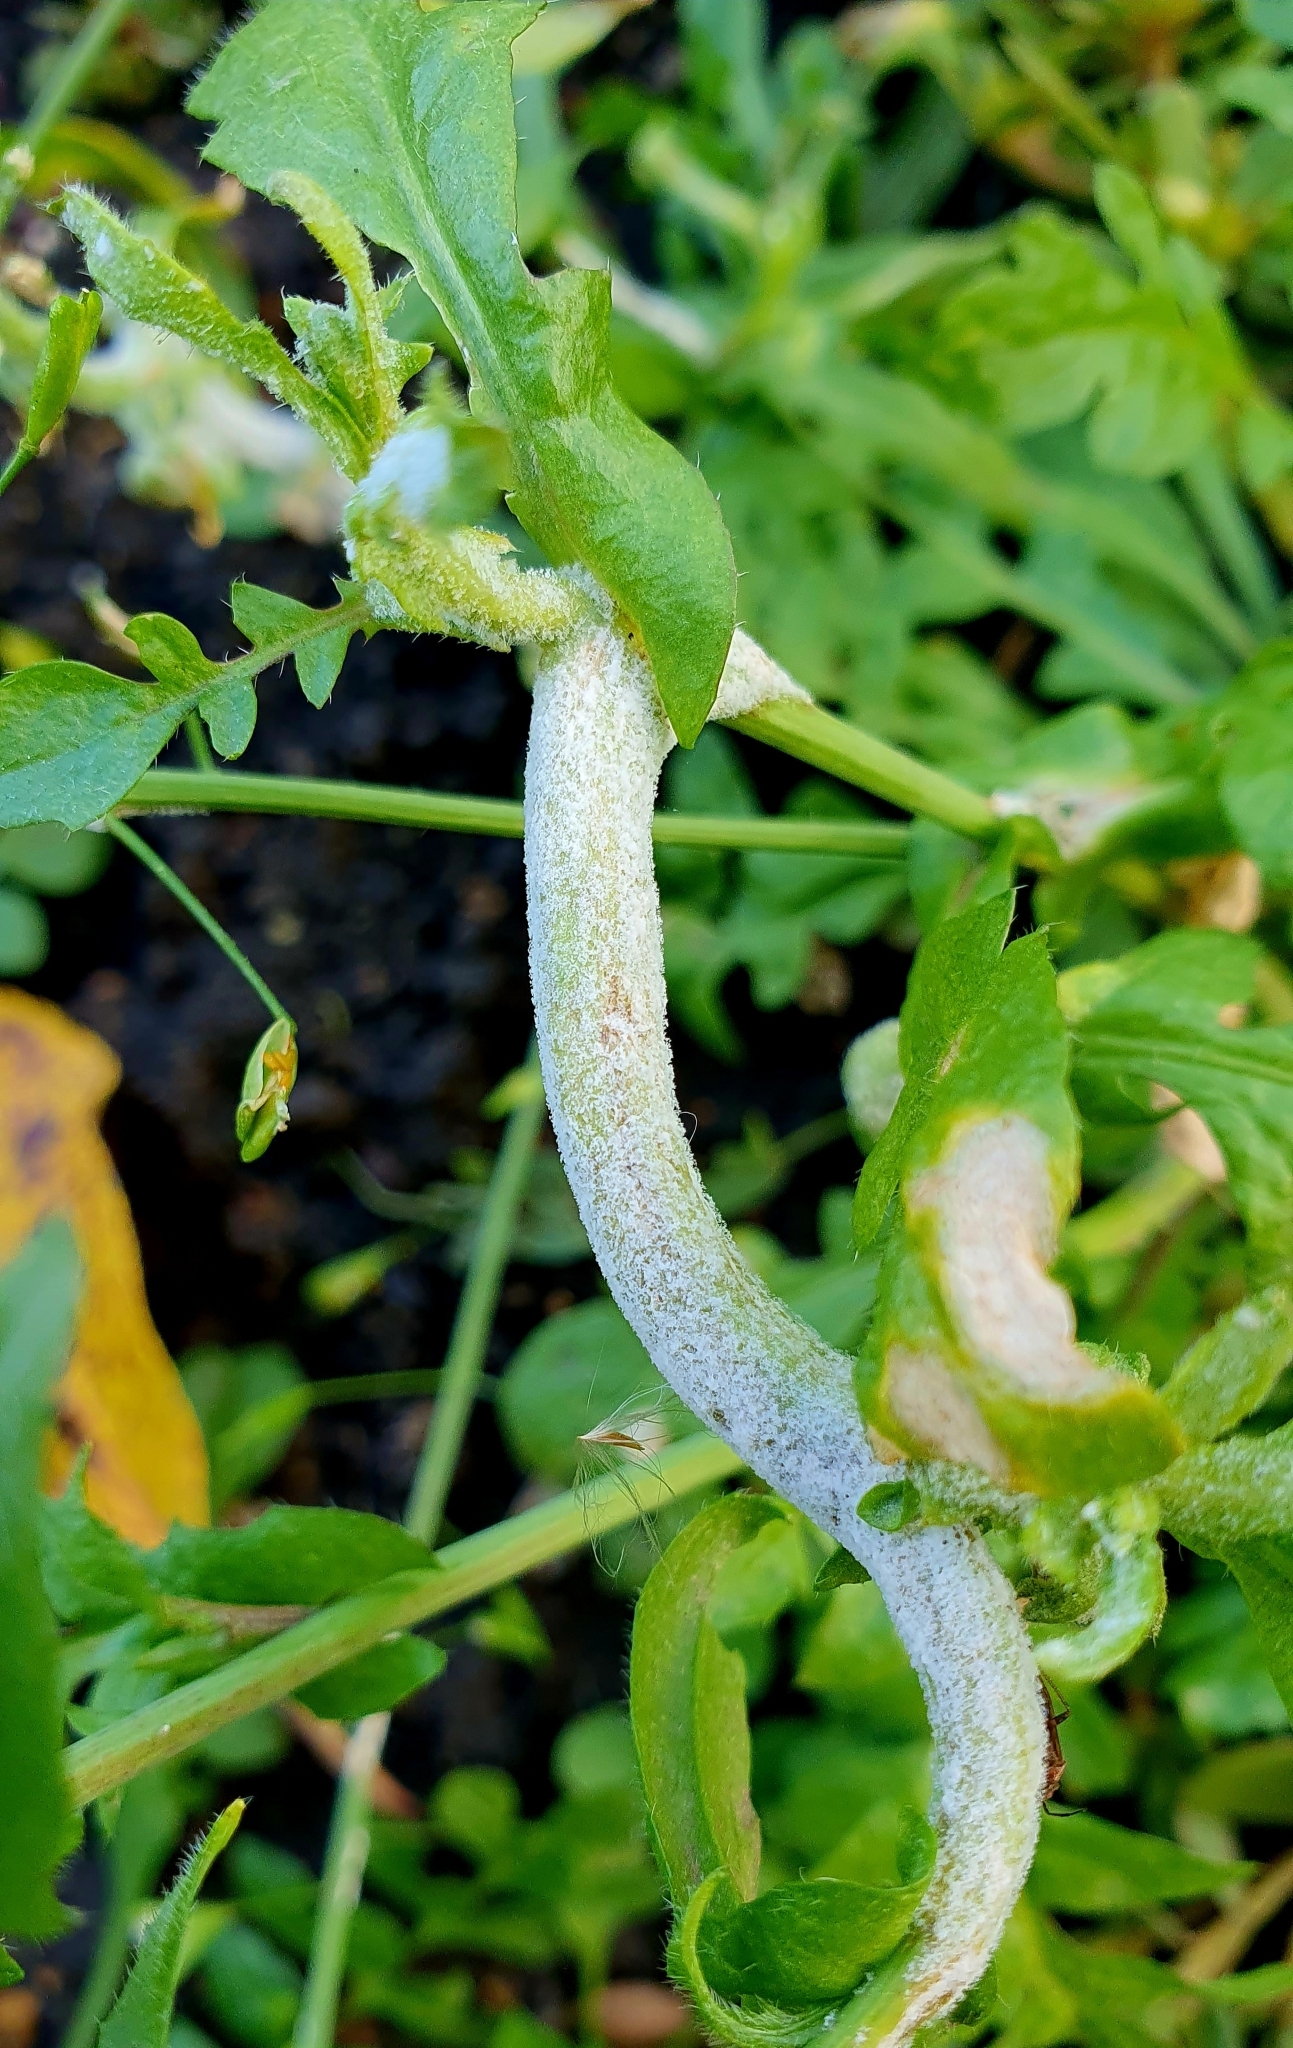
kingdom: Chromista
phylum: Oomycota
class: Peronosporea
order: Albuginales
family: Albuginaceae
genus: Albugo
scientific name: Albugo candida
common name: Crucifer white blister
